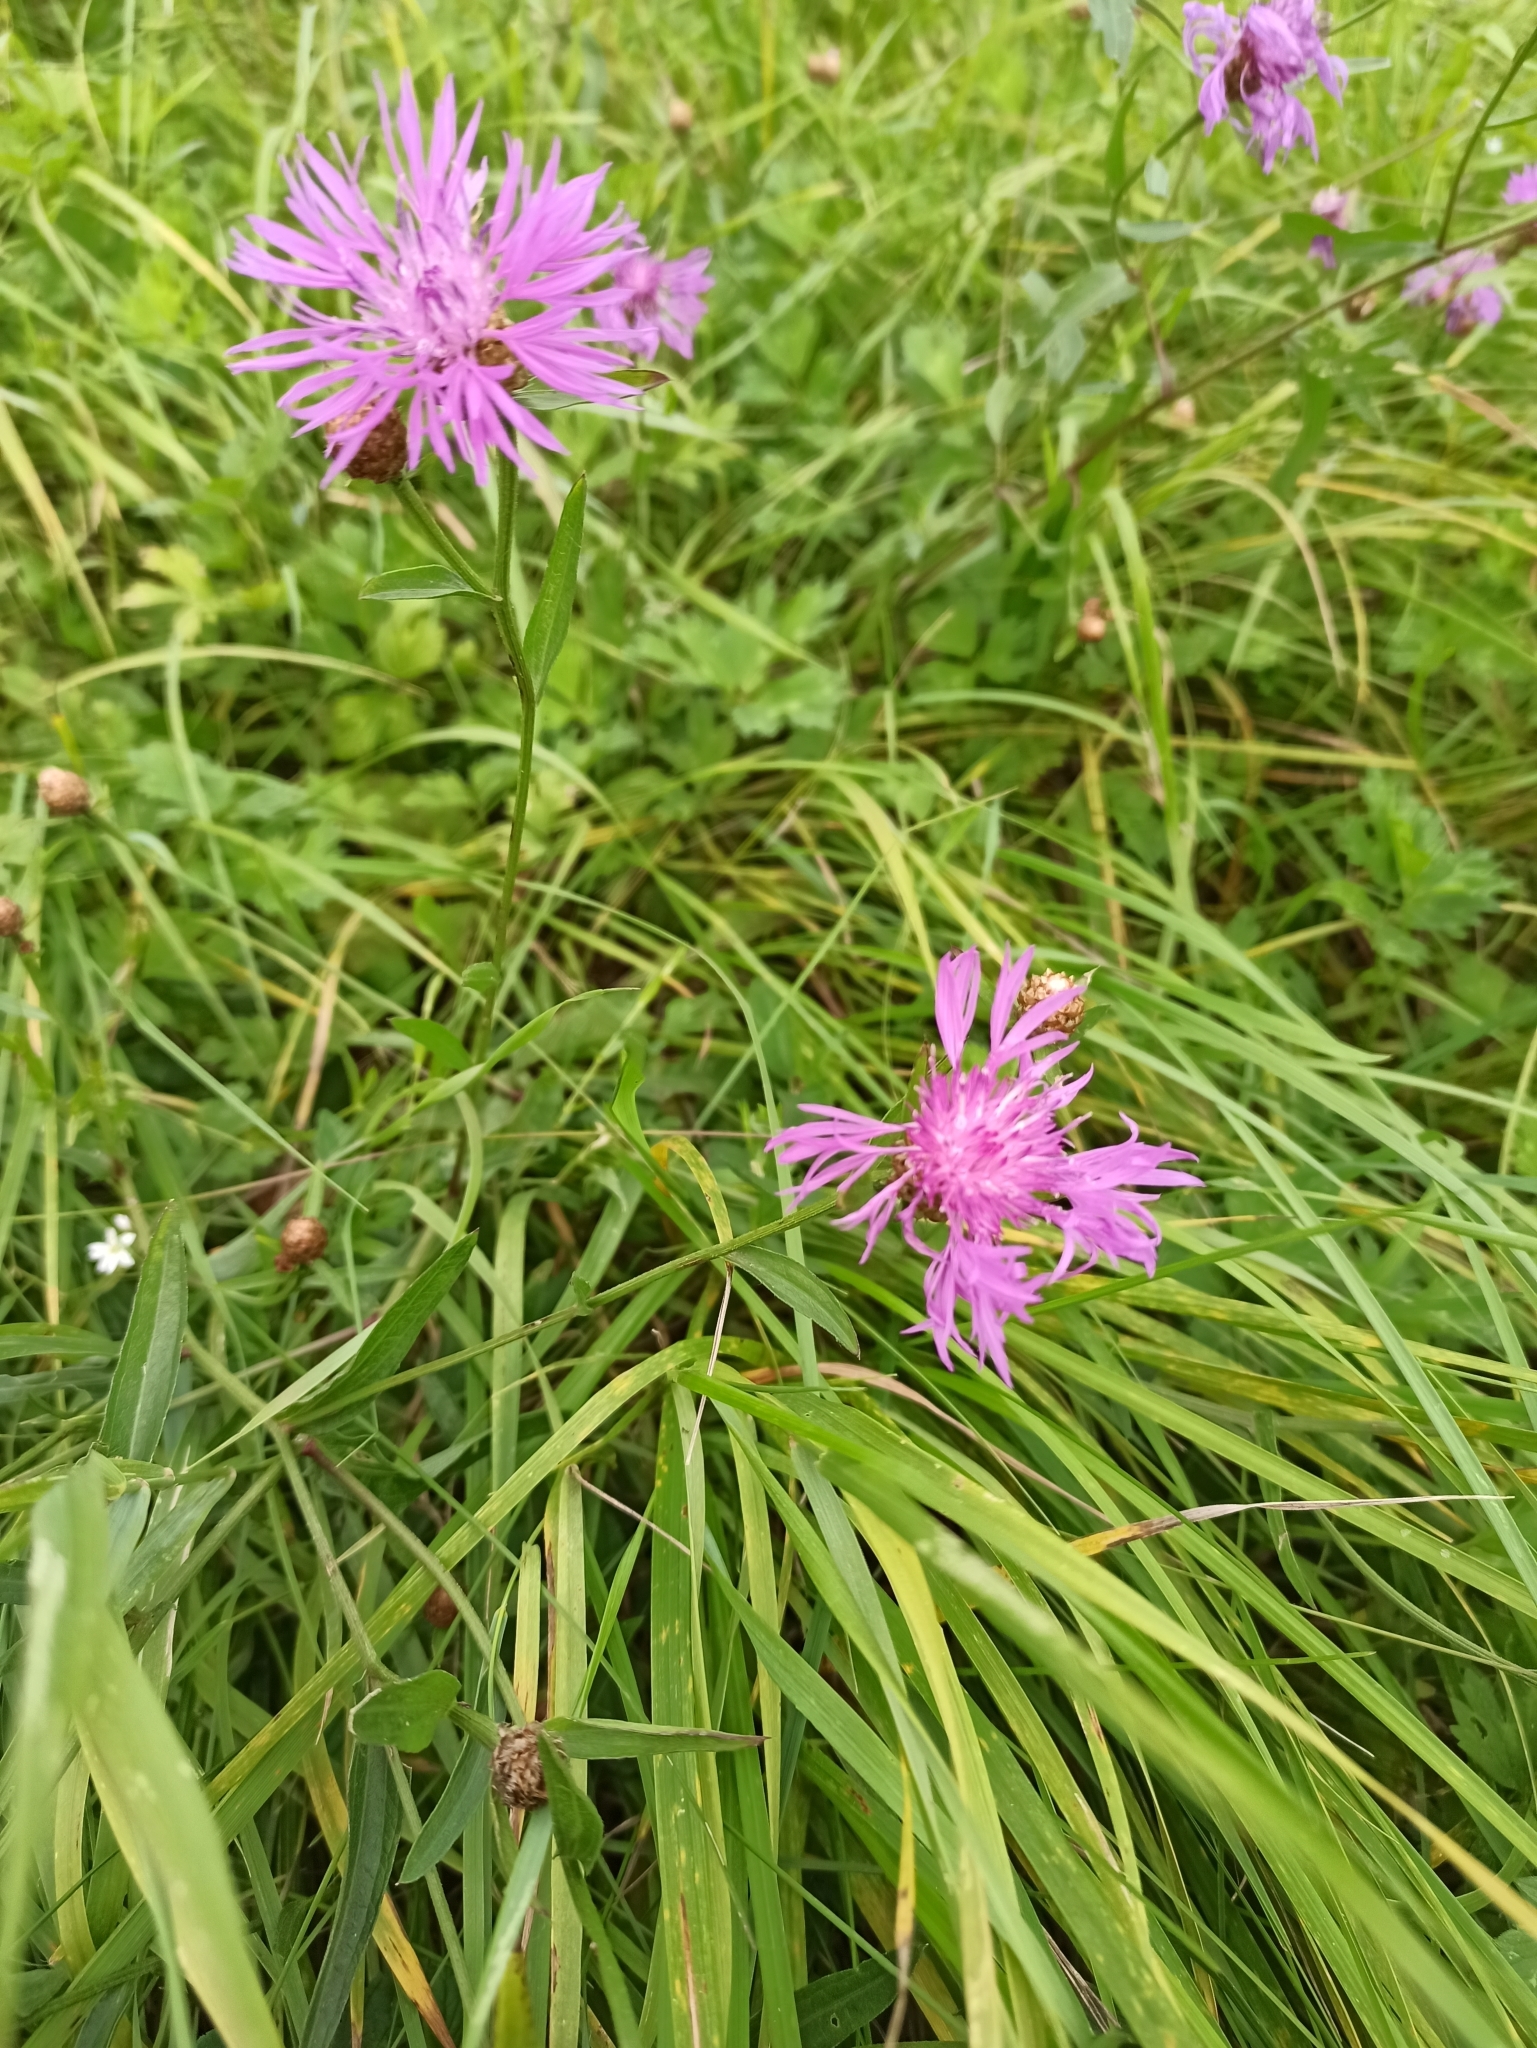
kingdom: Plantae
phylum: Tracheophyta
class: Magnoliopsida
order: Asterales
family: Asteraceae
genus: Centaurea
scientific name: Centaurea jacea
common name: Brown knapweed
